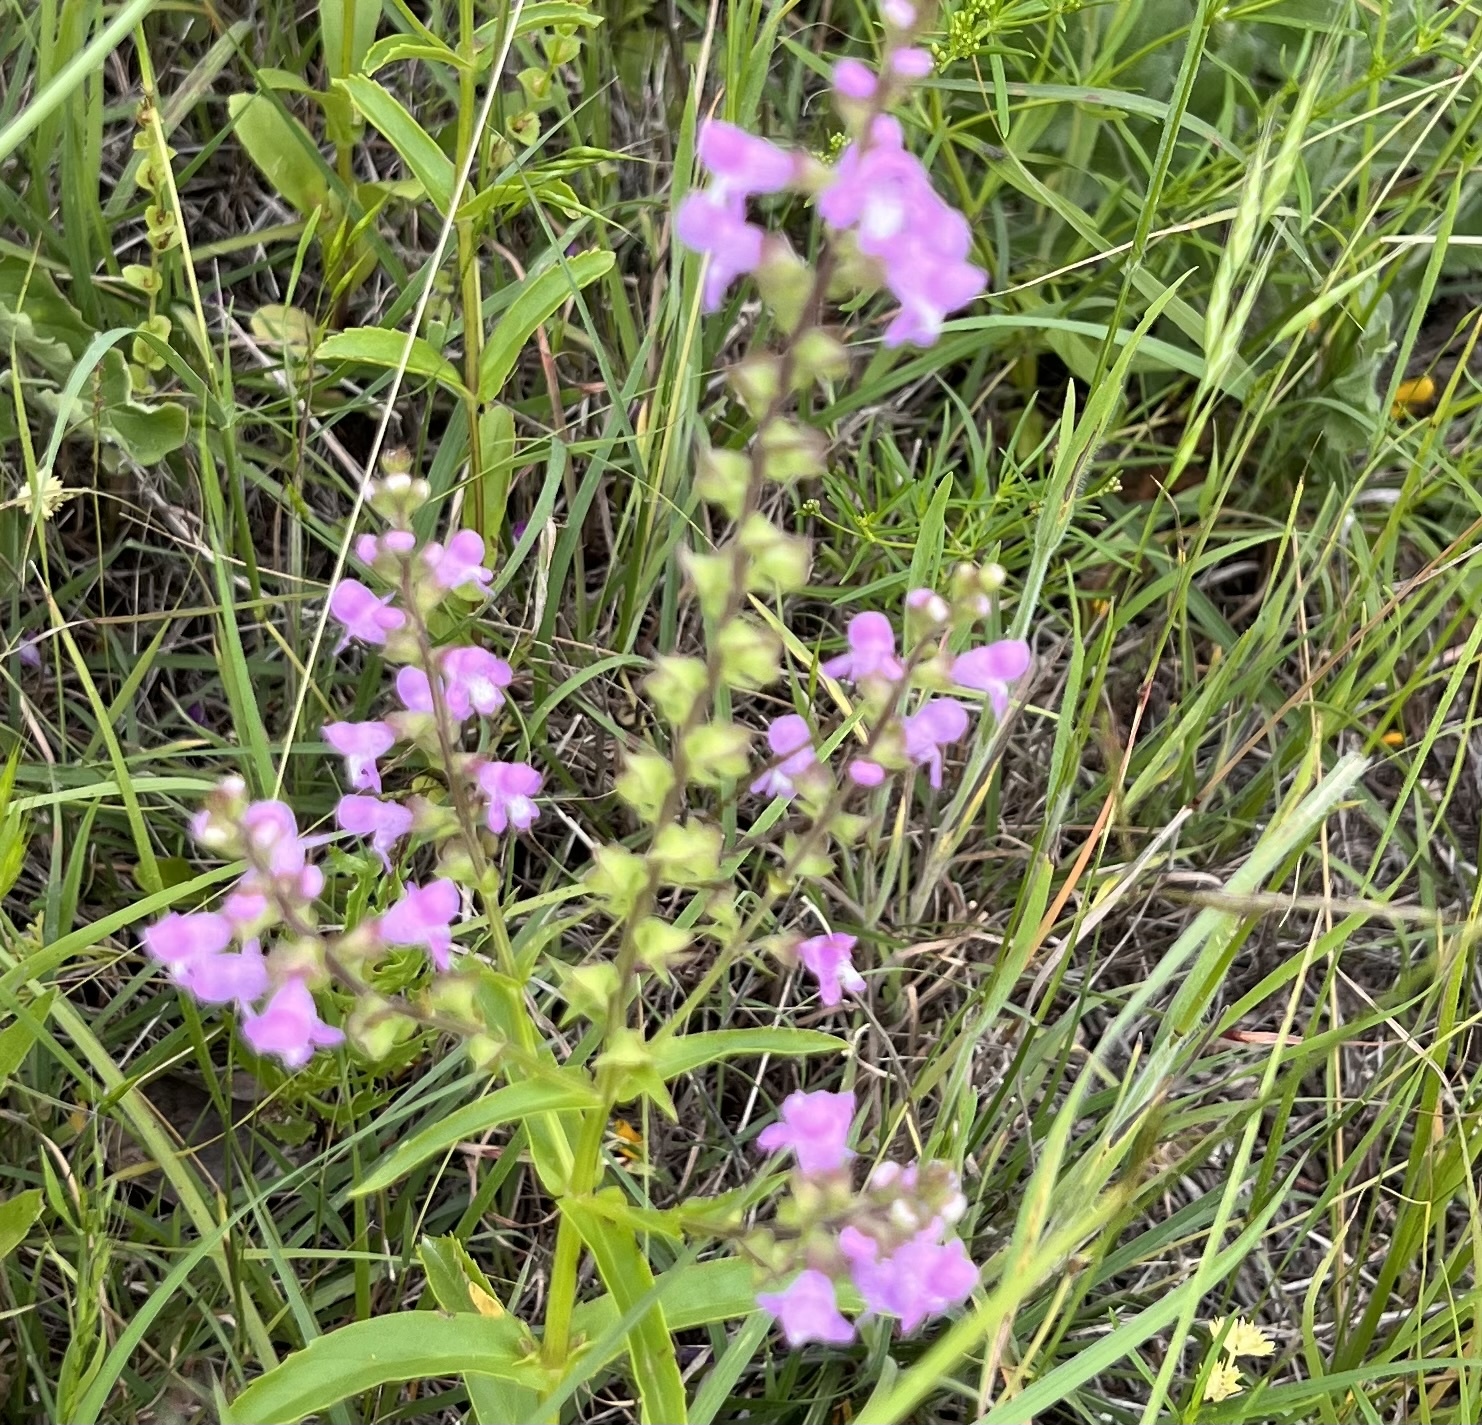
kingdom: Plantae
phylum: Tracheophyta
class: Magnoliopsida
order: Lamiales
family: Lamiaceae
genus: Warnockia
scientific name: Warnockia scutellarioides
